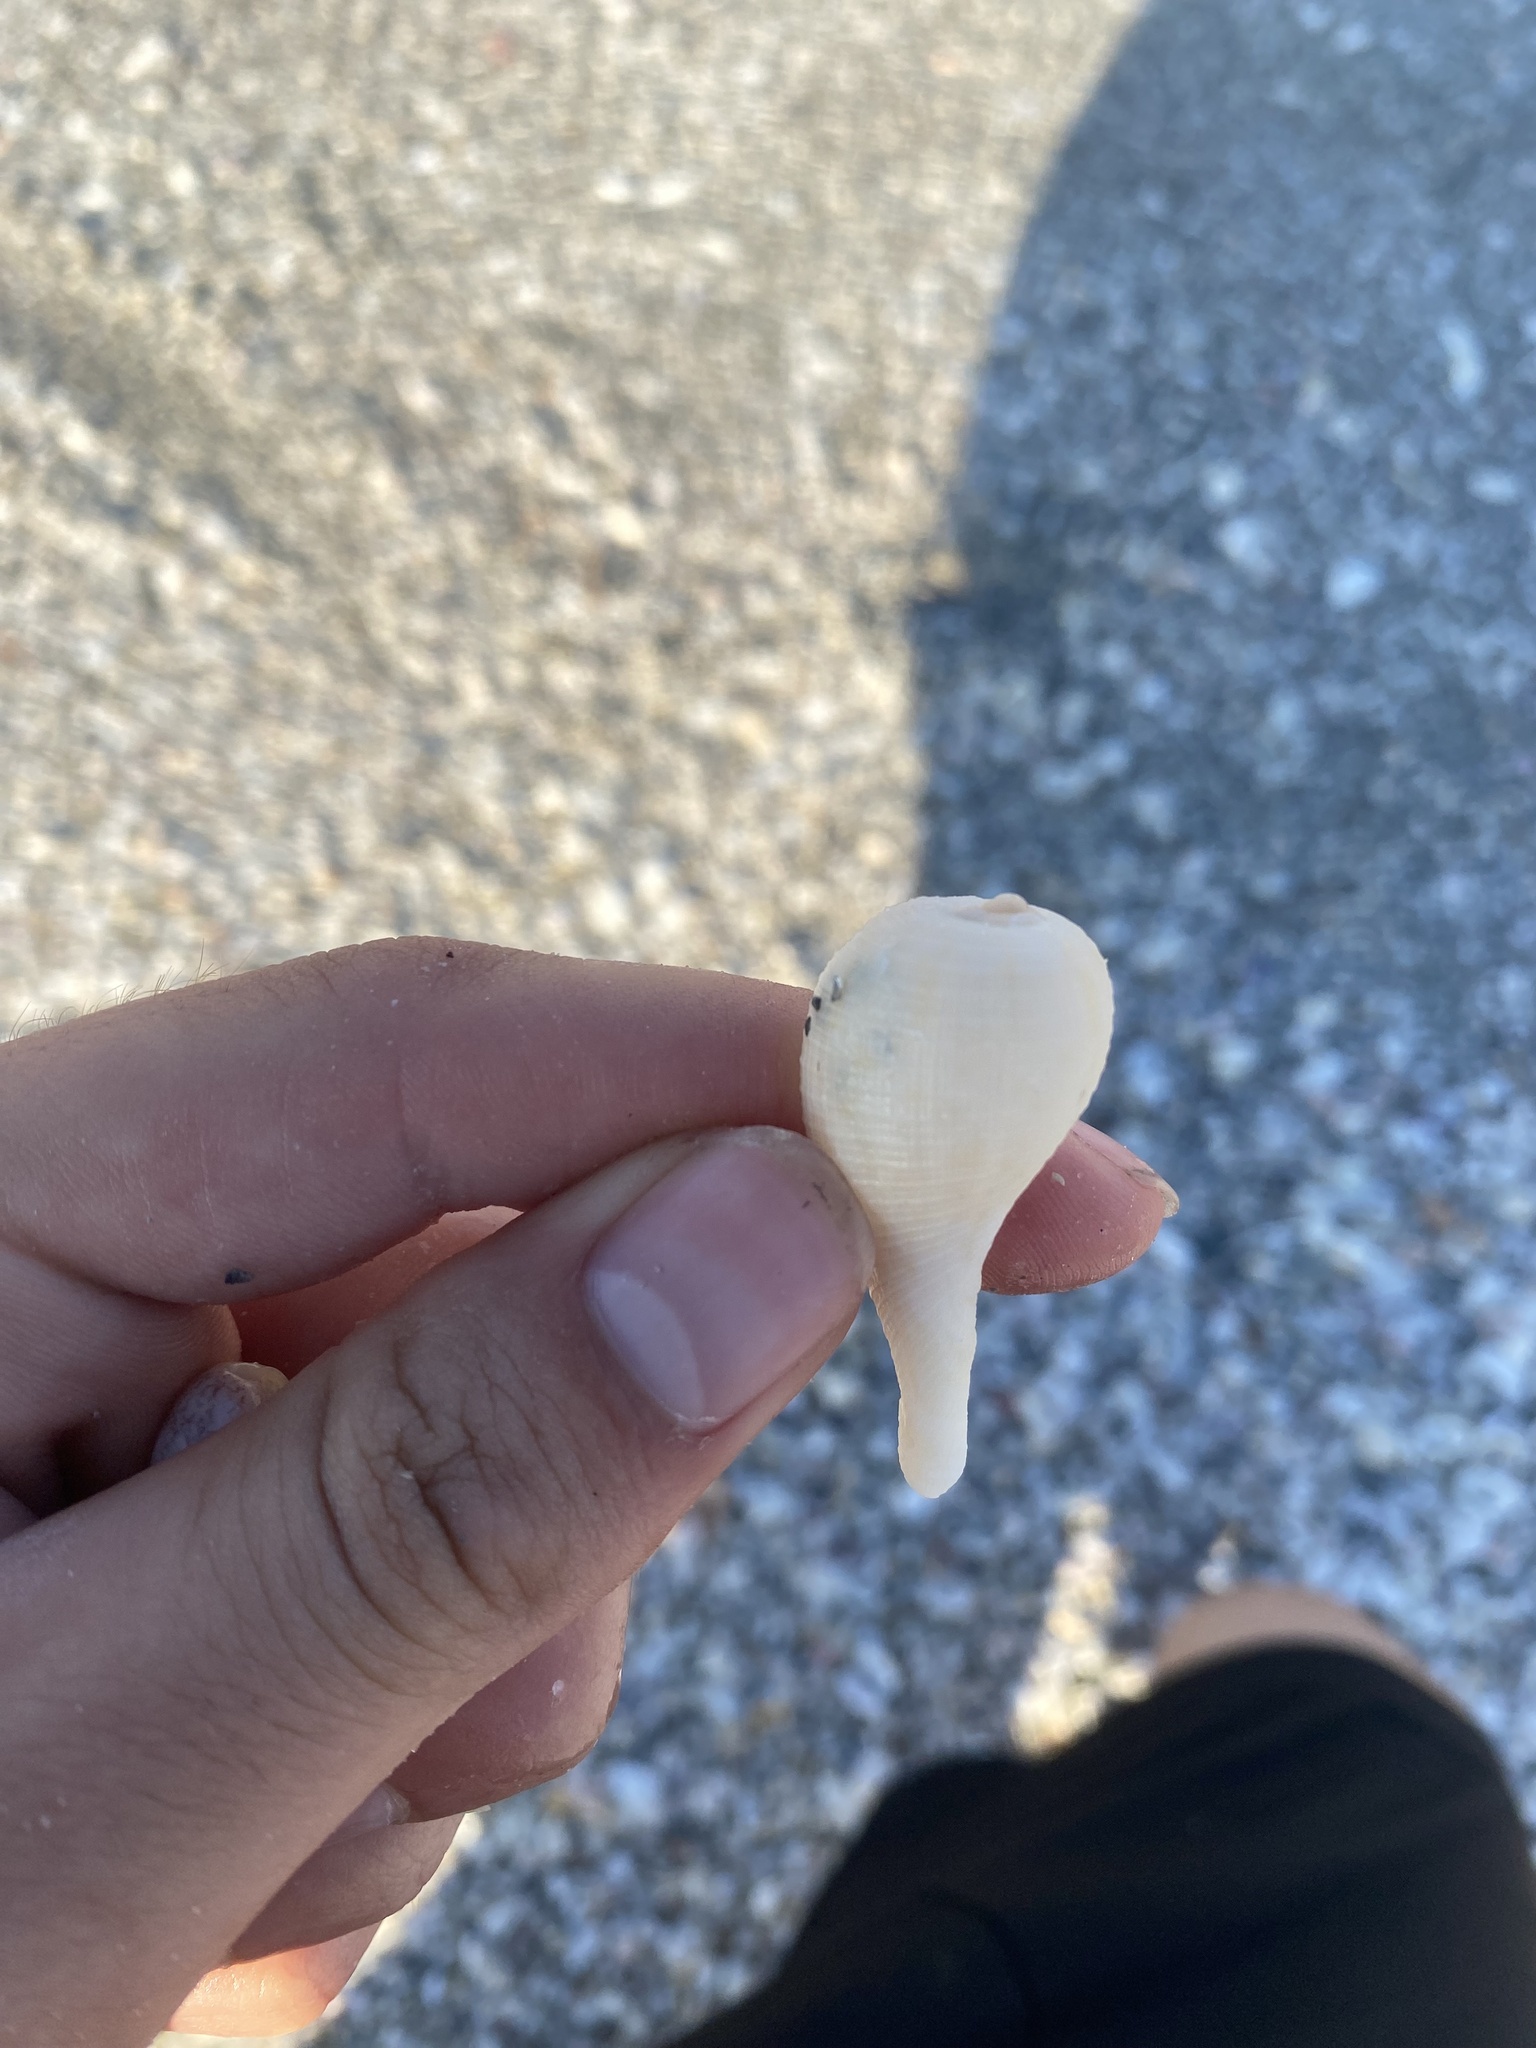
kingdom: Animalia
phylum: Mollusca
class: Gastropoda
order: Littorinimorpha
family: Ficidae
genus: Ficus
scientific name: Ficus papyratia
